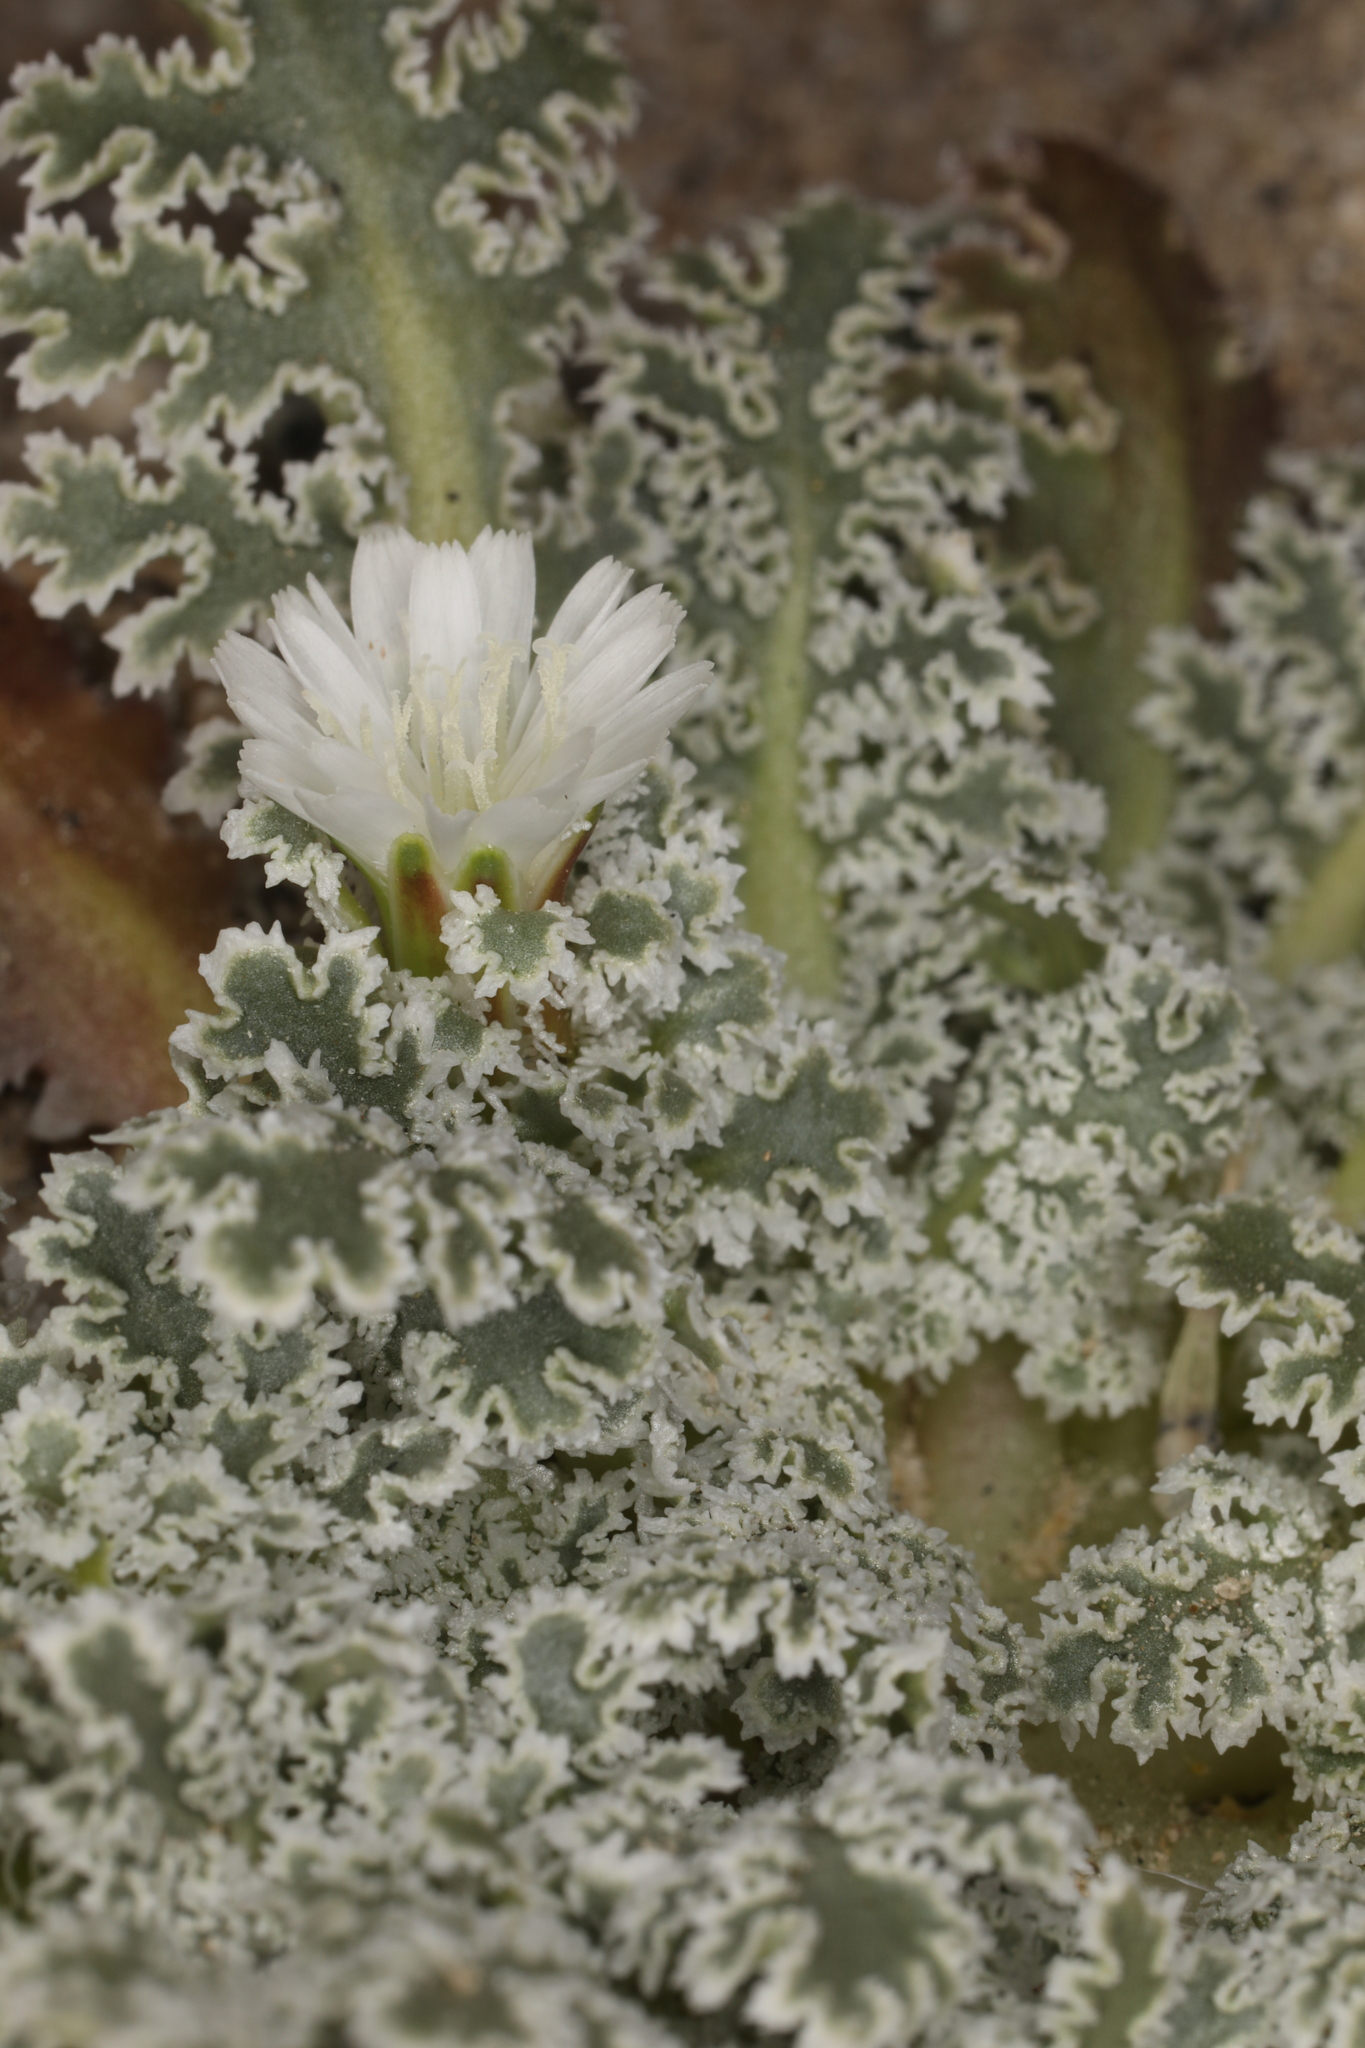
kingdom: Plantae
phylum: Tracheophyta
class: Magnoliopsida
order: Asterales
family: Asteraceae
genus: Glyptopleura
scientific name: Glyptopleura marginata
